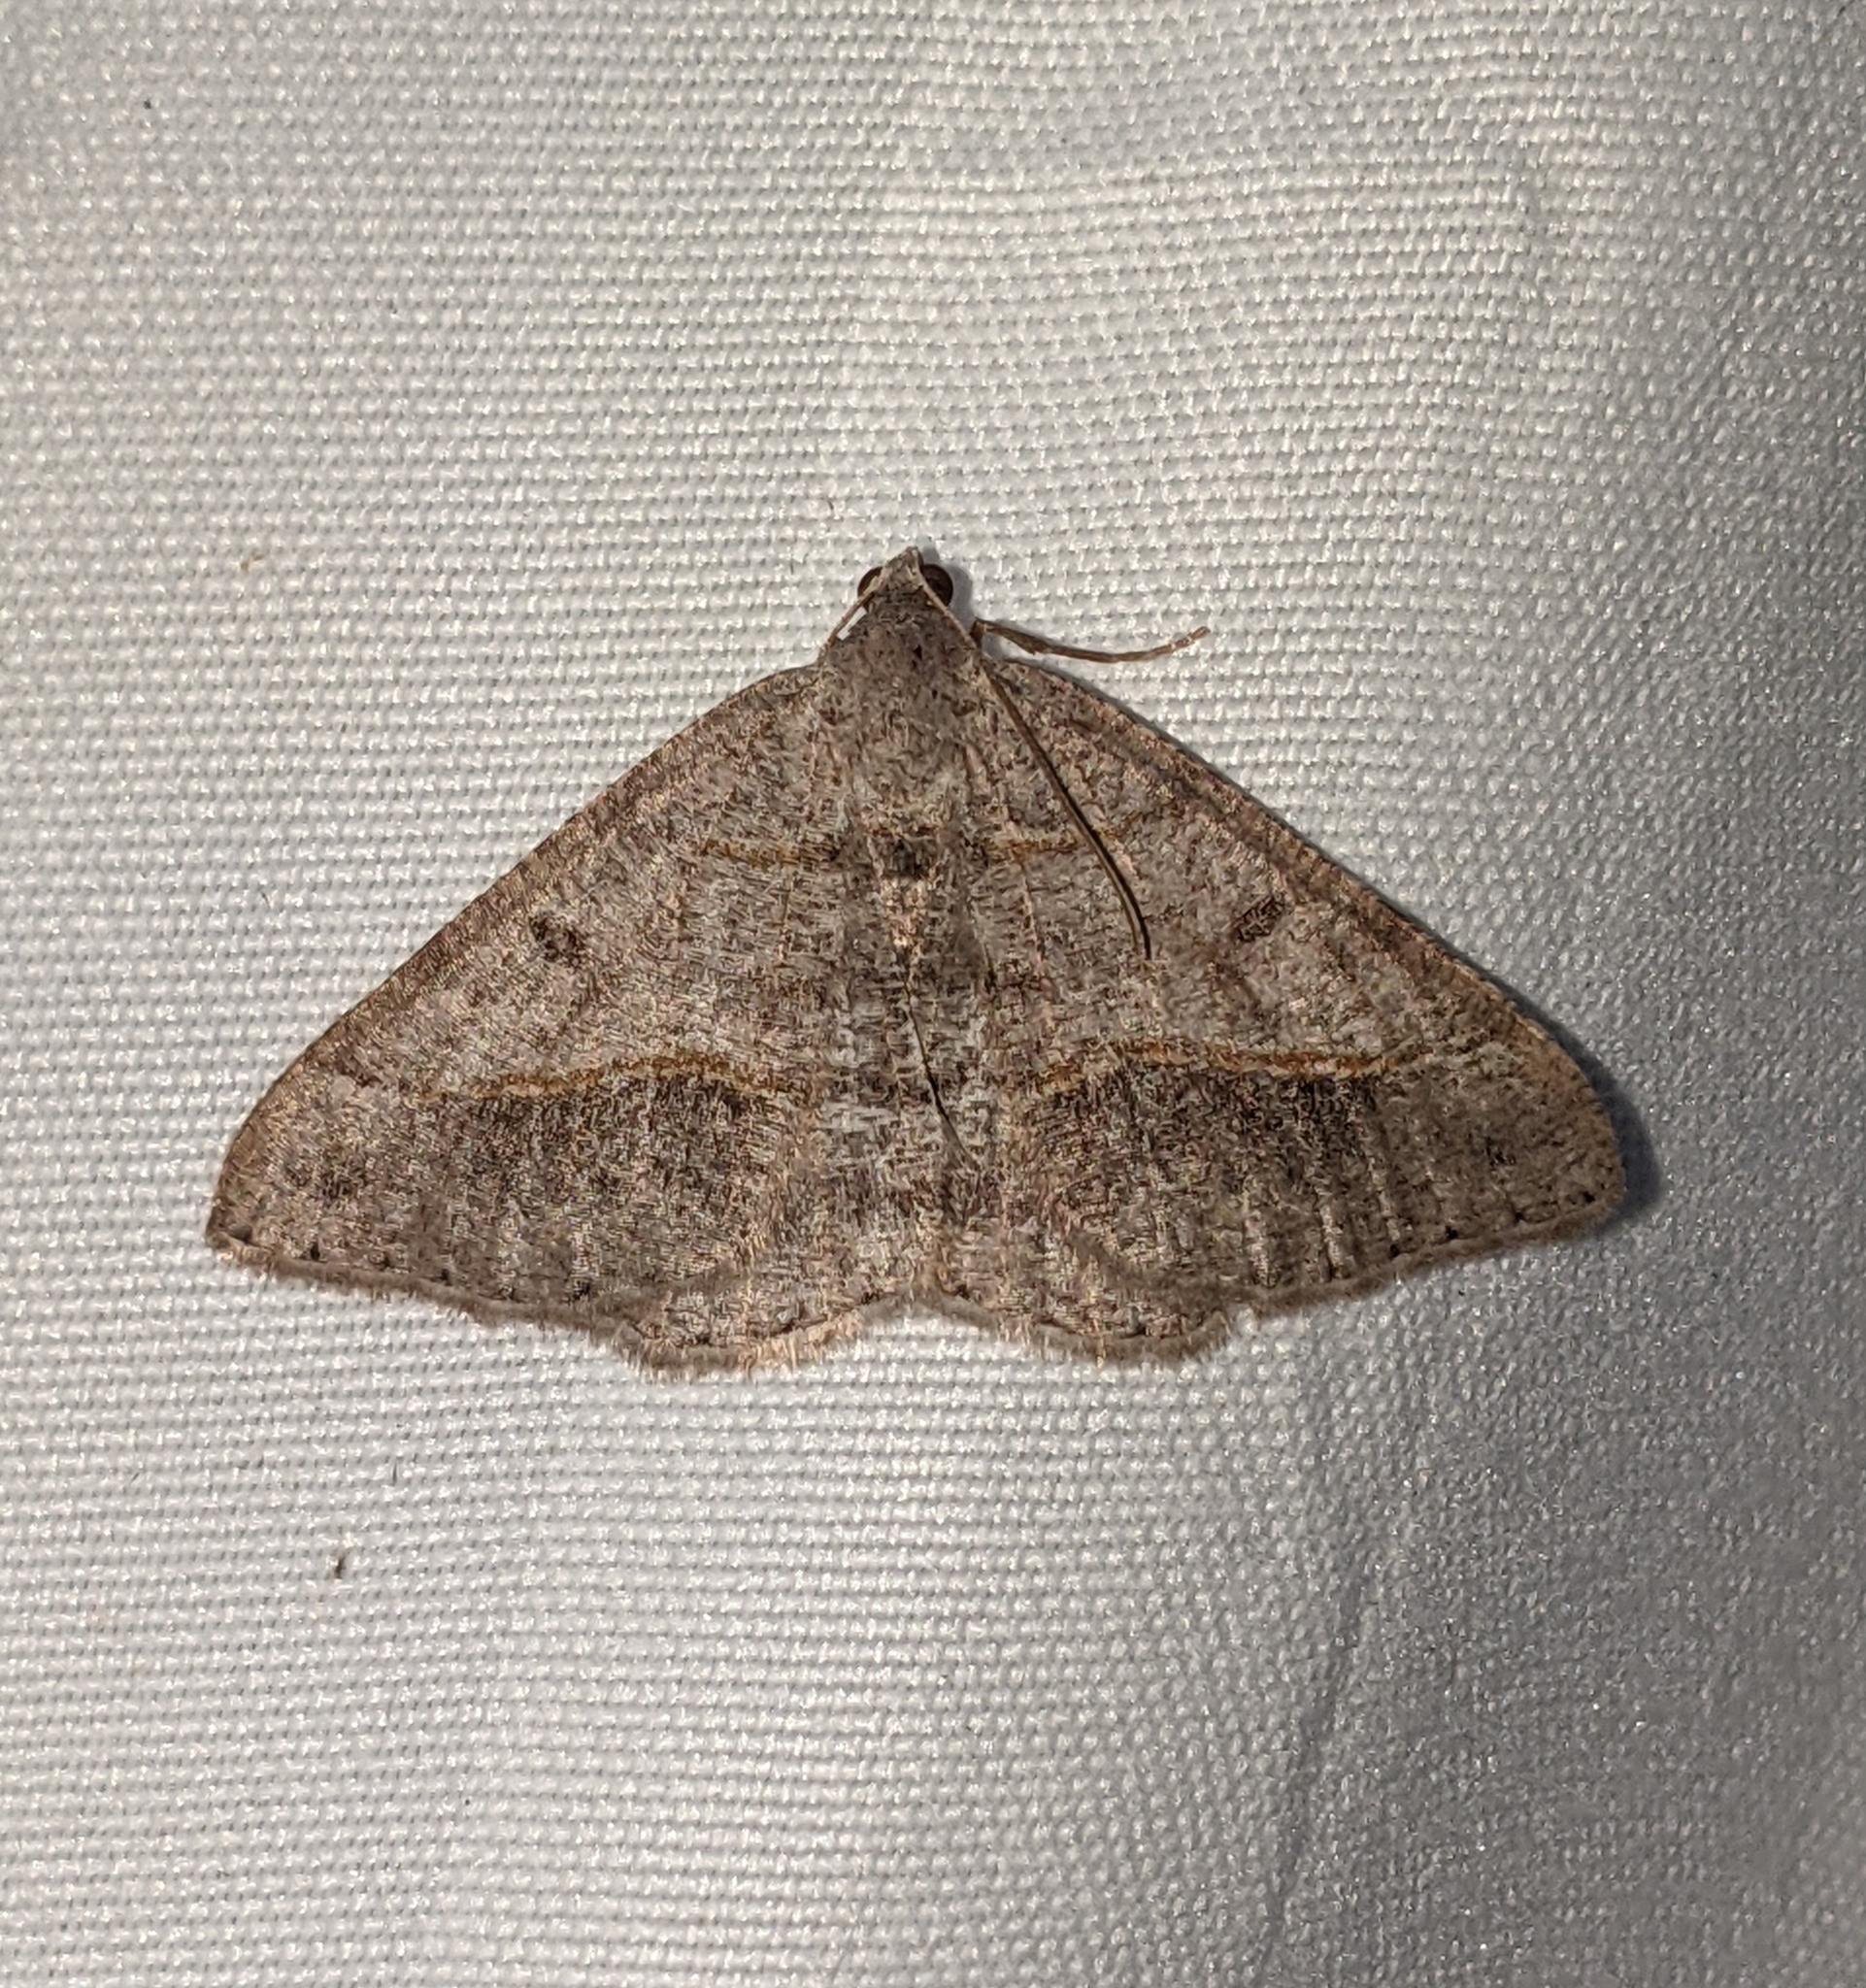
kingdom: Animalia
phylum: Arthropoda
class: Insecta
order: Lepidoptera
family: Geometridae
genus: Digrammia
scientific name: Digrammia neptaria
